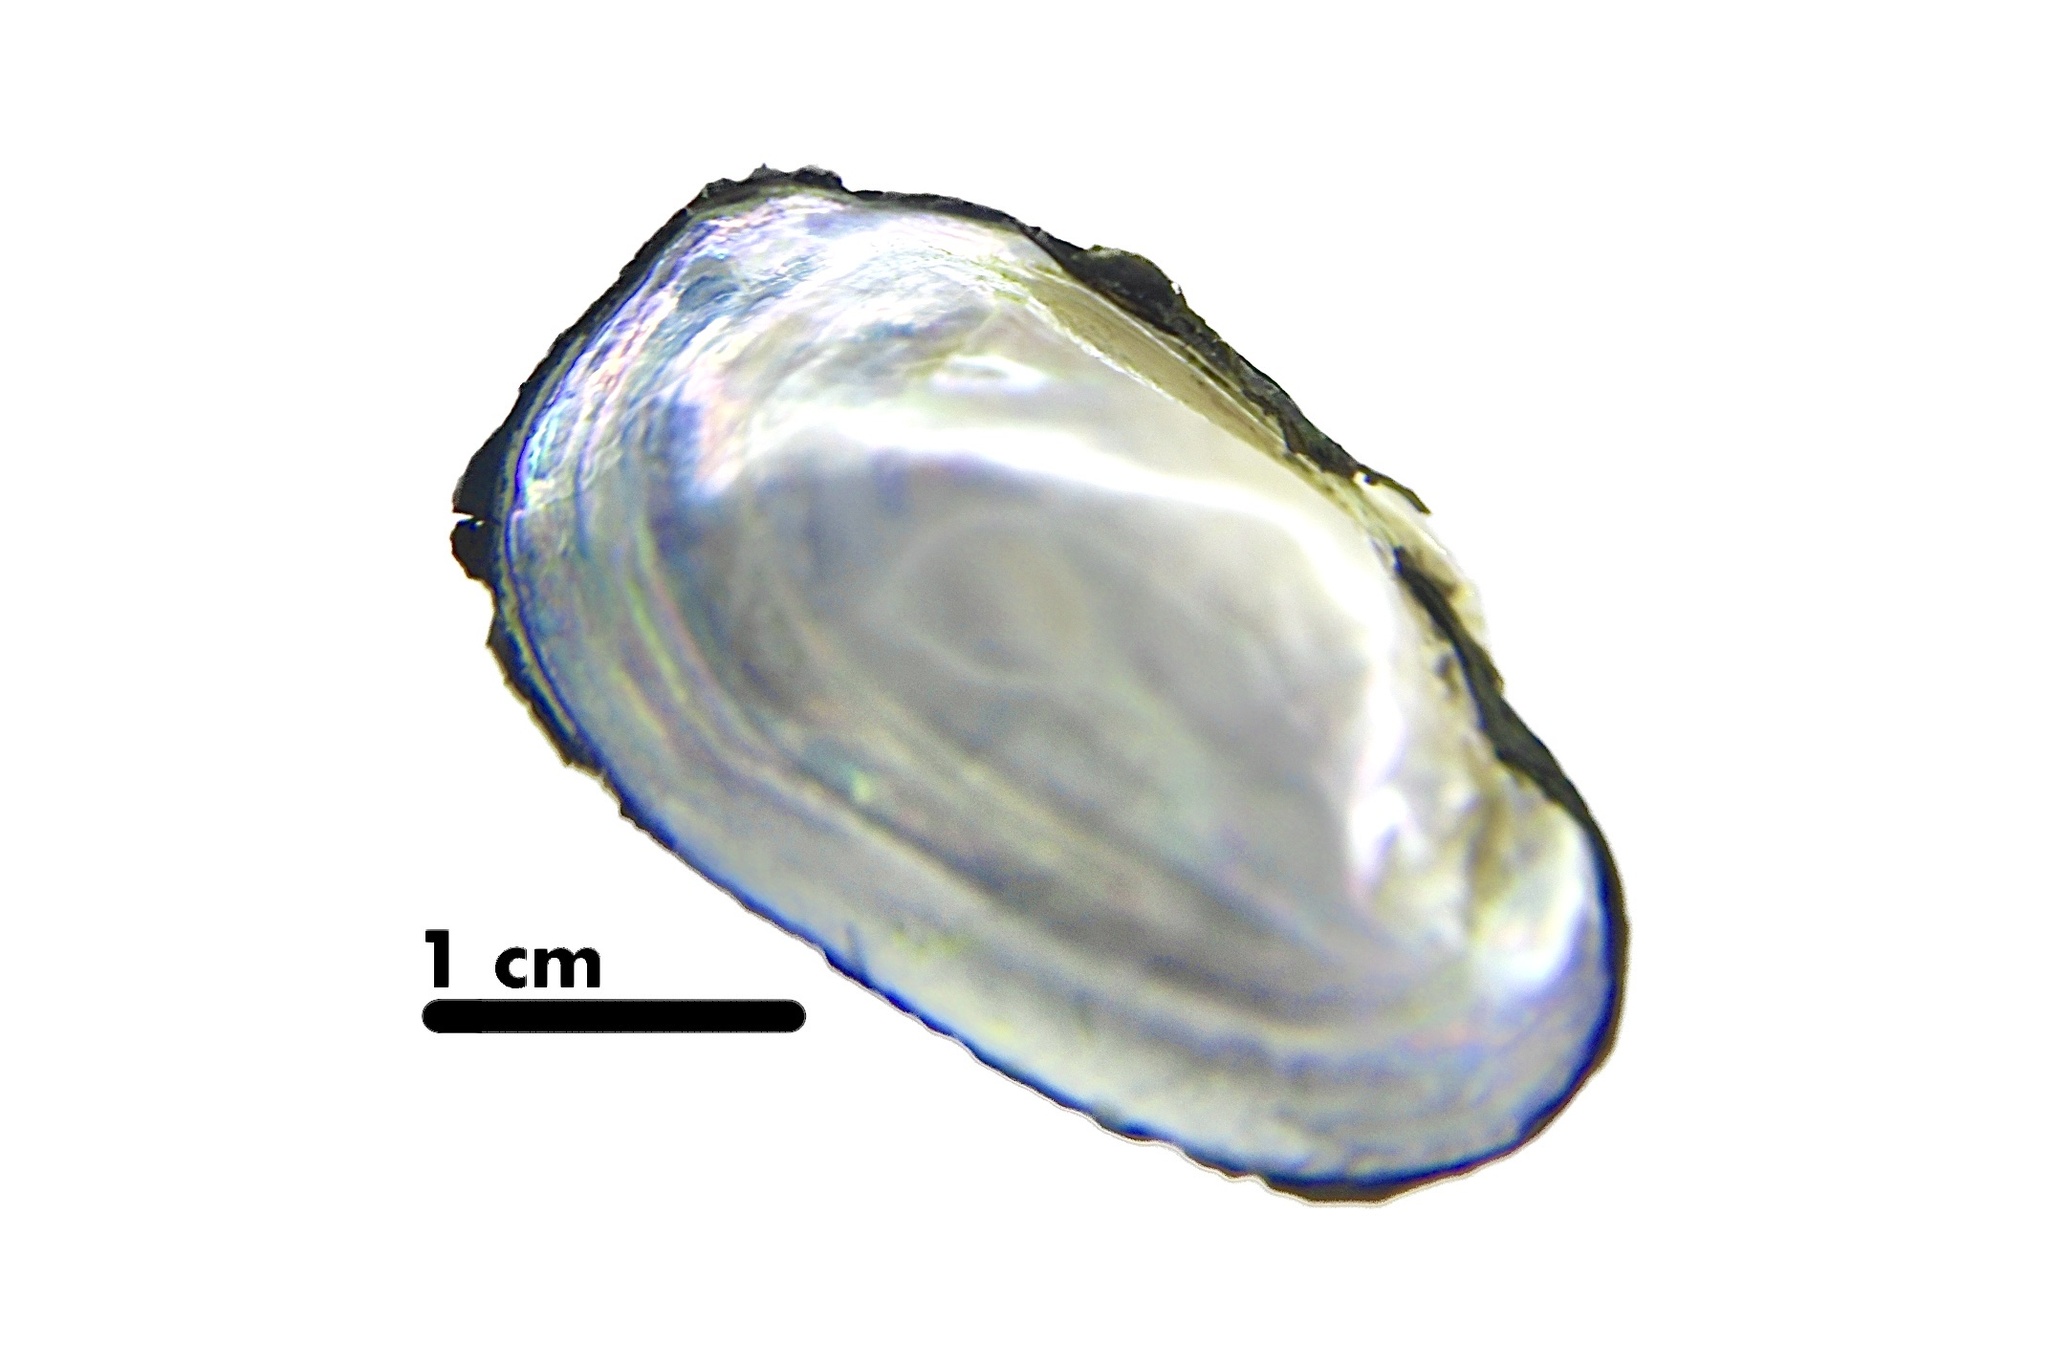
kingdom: Animalia
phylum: Mollusca
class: Bivalvia
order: Unionida
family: Unionidae
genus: Toxolasma
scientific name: Toxolasma parvum
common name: Lilliput
